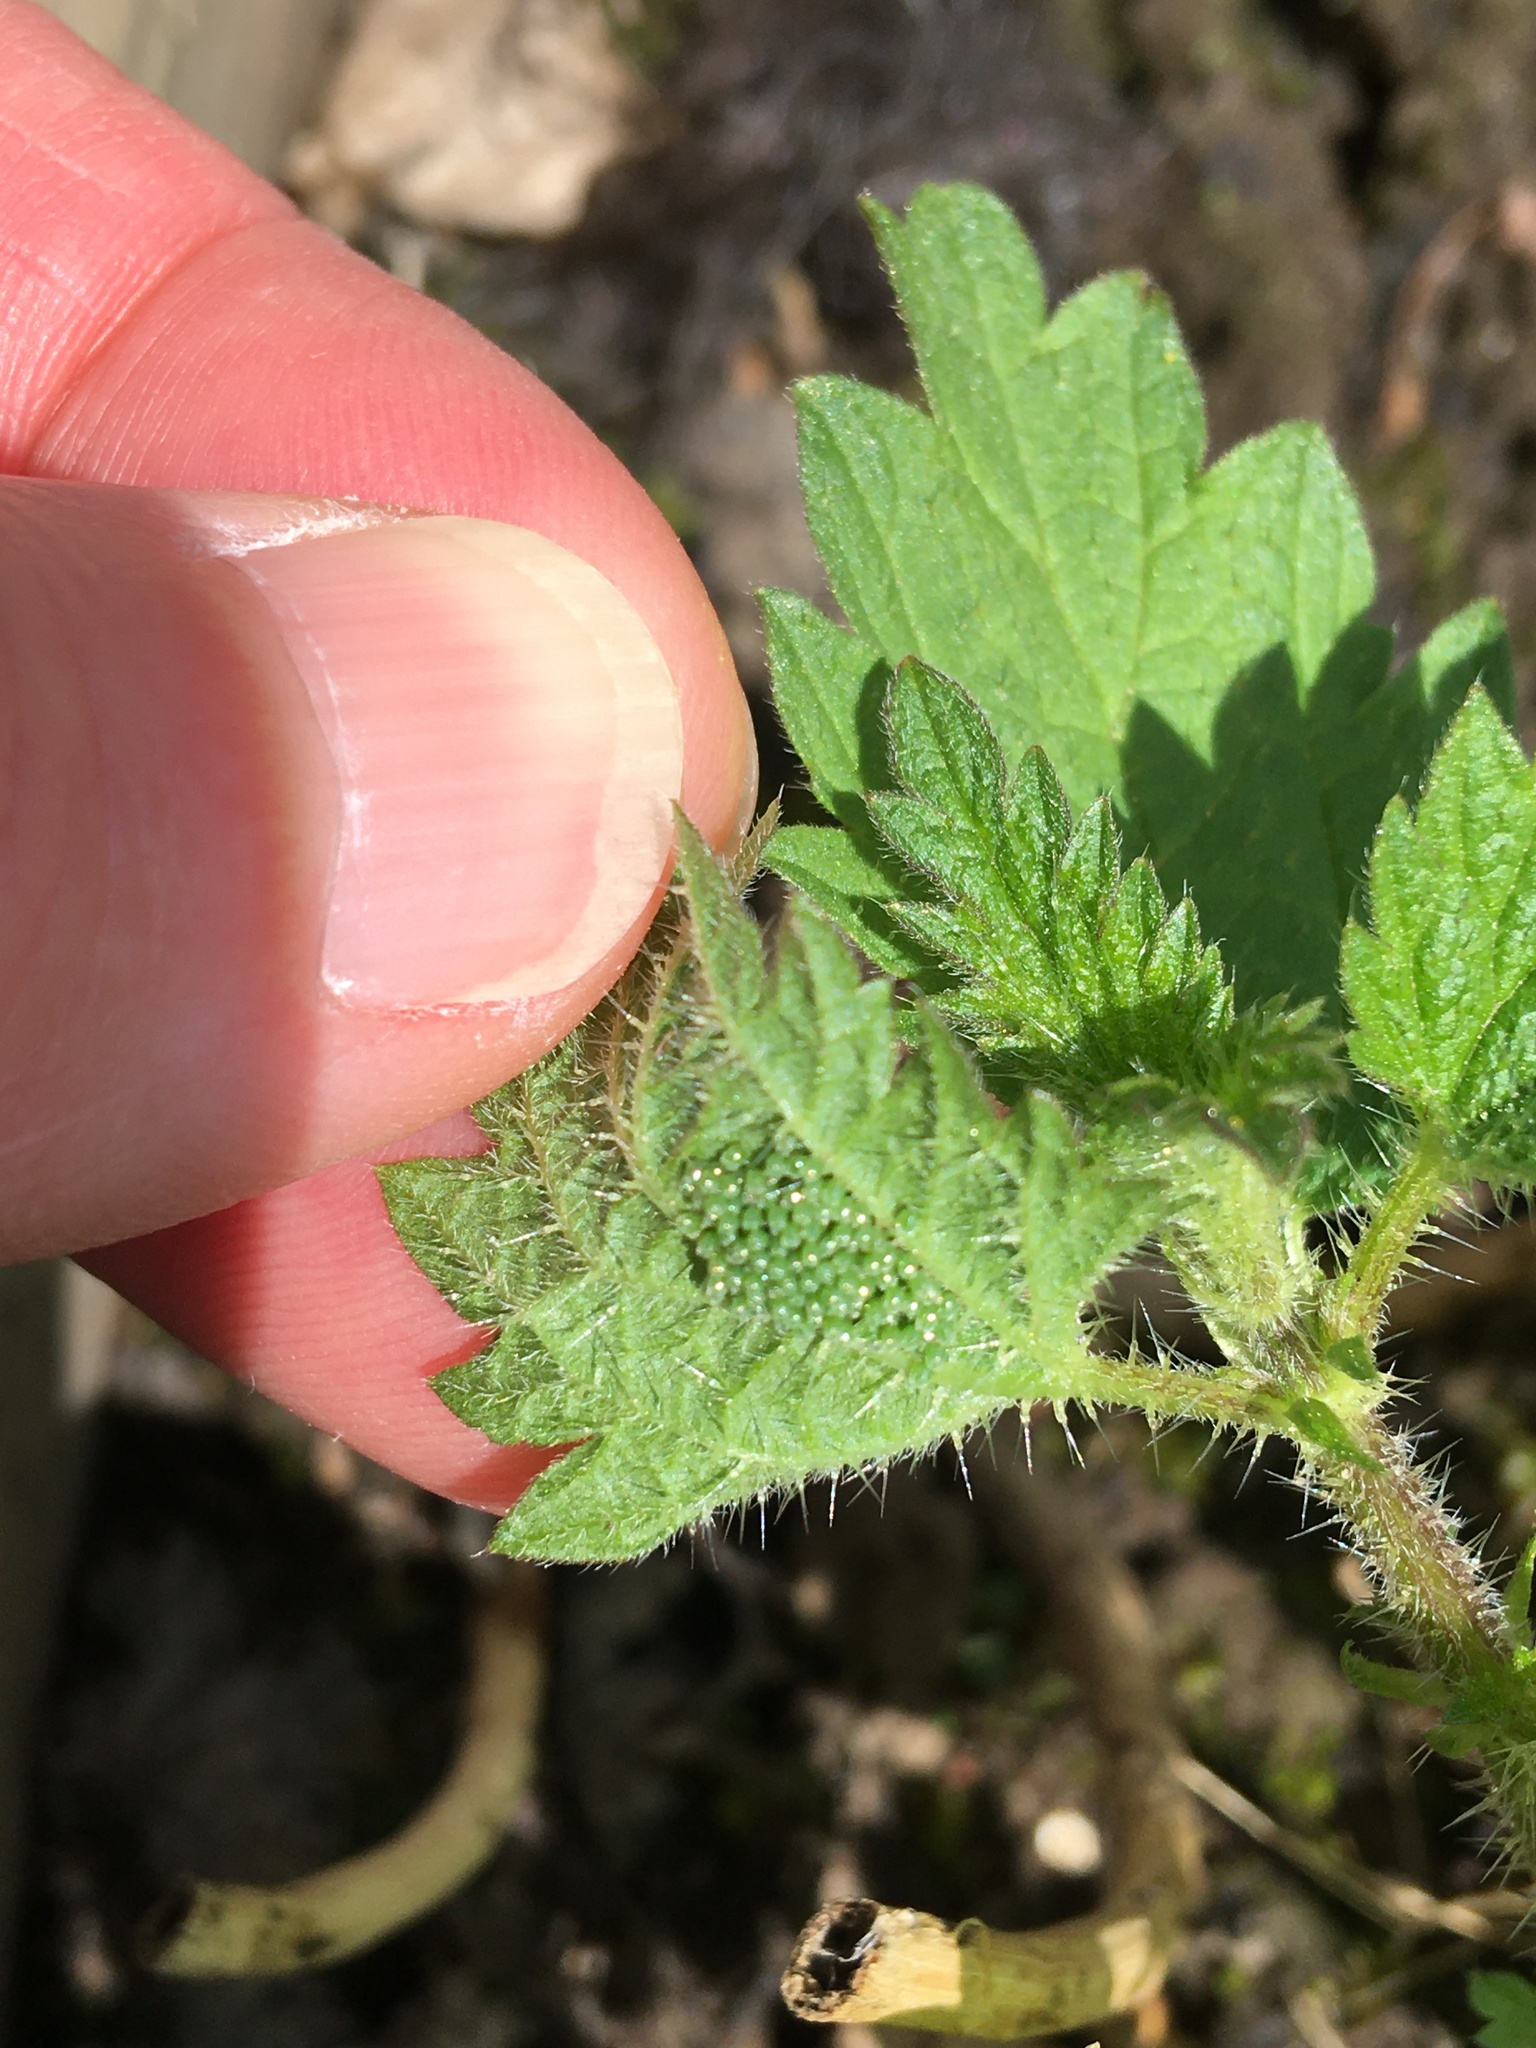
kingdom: Animalia
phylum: Arthropoda
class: Insecta
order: Lepidoptera
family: Nymphalidae
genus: Aglais
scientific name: Aglais urticae
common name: Small tortoiseshell
